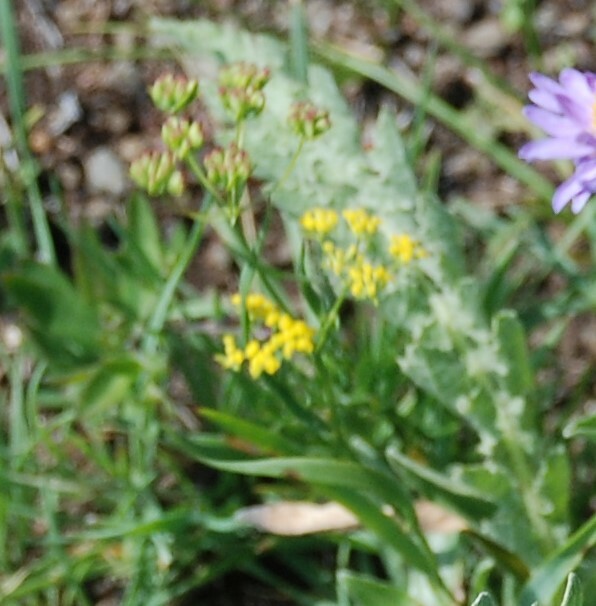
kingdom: Plantae
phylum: Tracheophyta
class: Magnoliopsida
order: Apiales
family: Apiaceae
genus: Bupleurum
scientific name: Bupleurum scorzonerifolium
